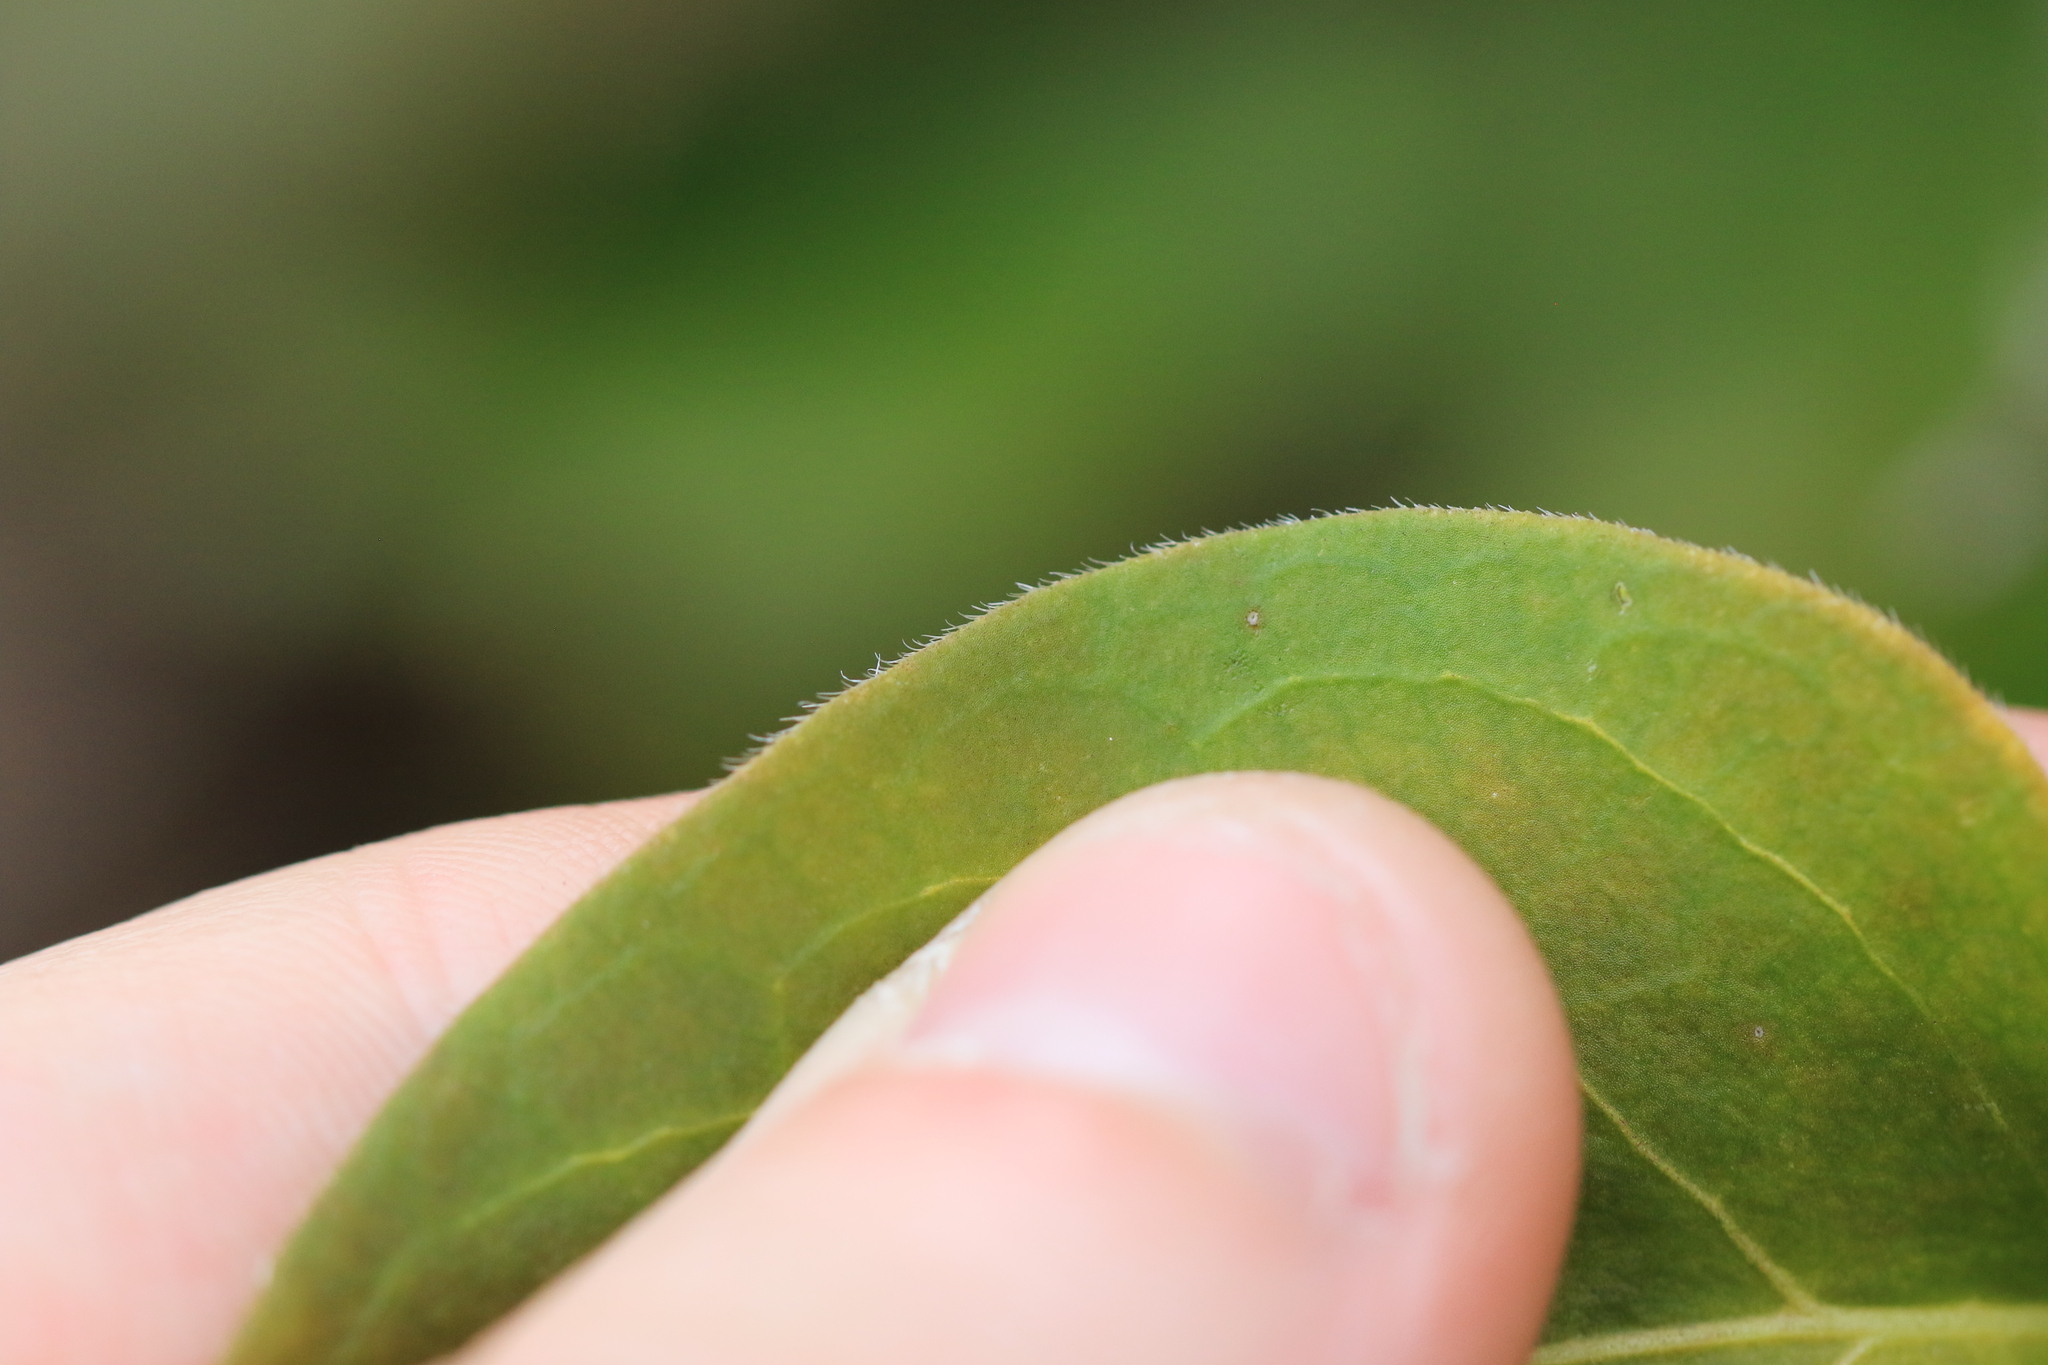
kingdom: Plantae
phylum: Tracheophyta
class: Magnoliopsida
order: Gentianales
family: Apocynaceae
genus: Vinca
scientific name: Vinca major
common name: Greater periwinkle
